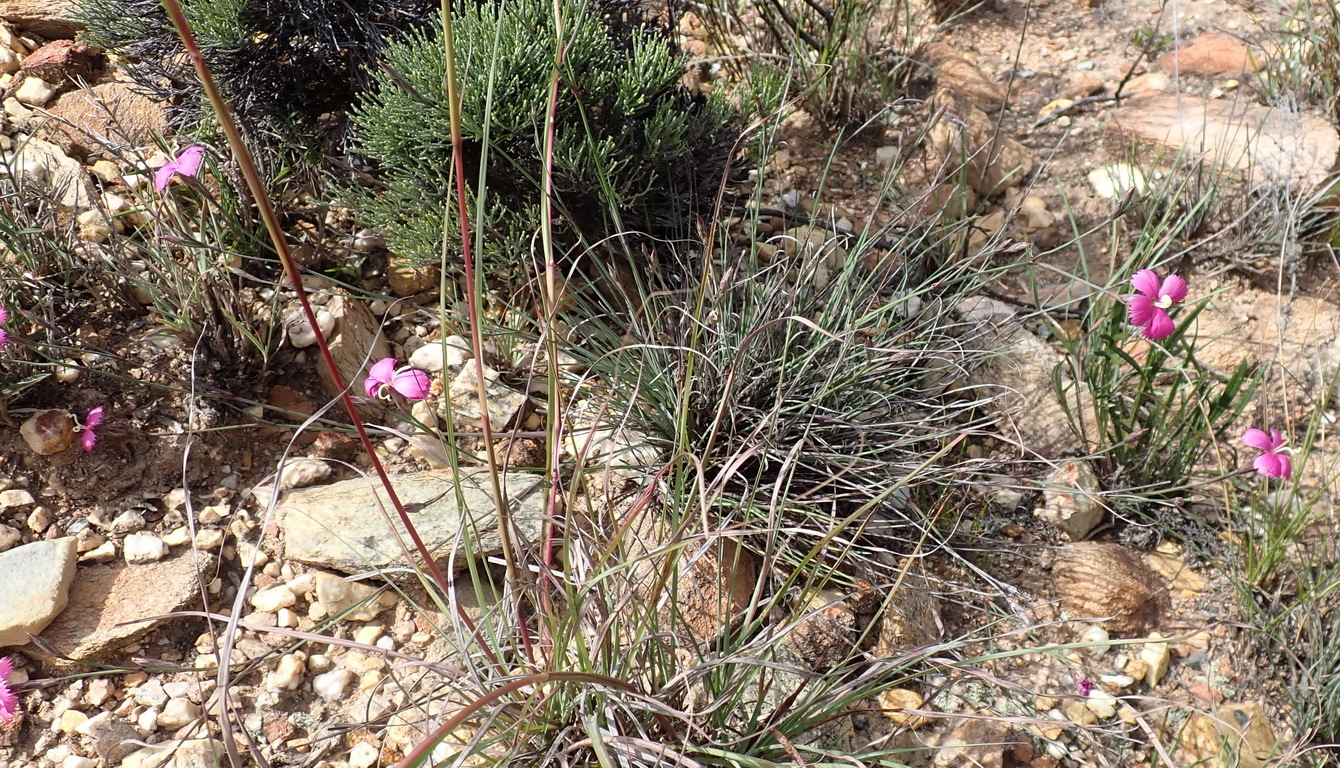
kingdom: Plantae
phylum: Tracheophyta
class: Magnoliopsida
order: Caryophyllales
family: Caryophyllaceae
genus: Dianthus
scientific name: Dianthus basuticus
